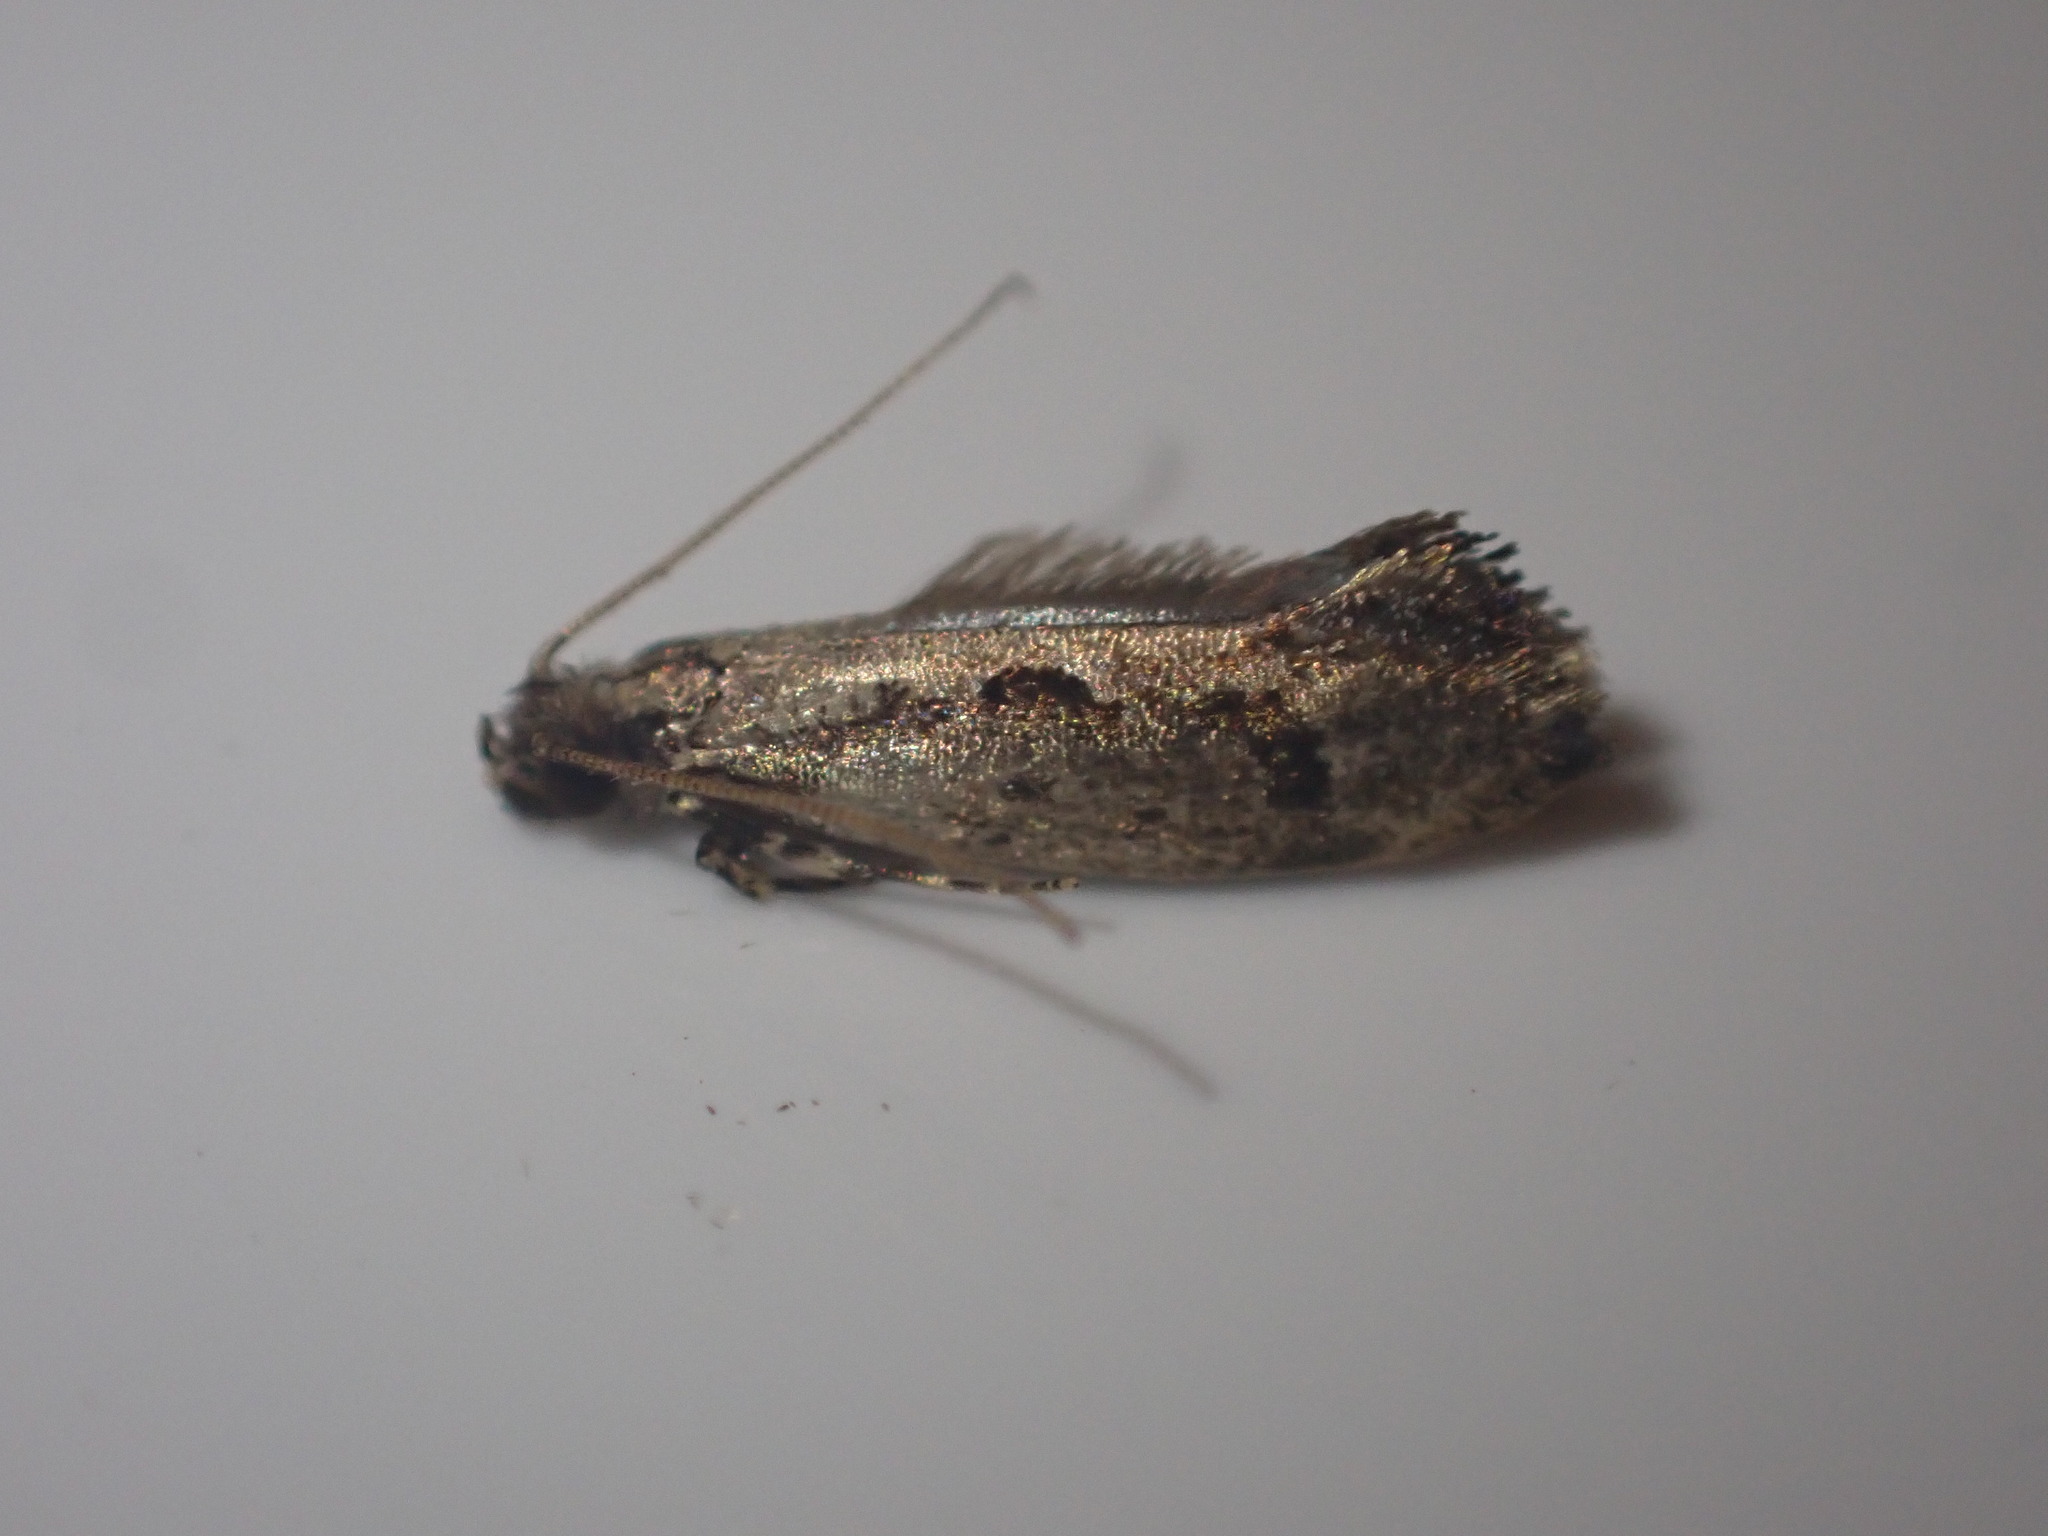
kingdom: Animalia
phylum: Arthropoda
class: Insecta
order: Lepidoptera
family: Tineidae
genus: Erechthias
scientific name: Erechthias capnitis
